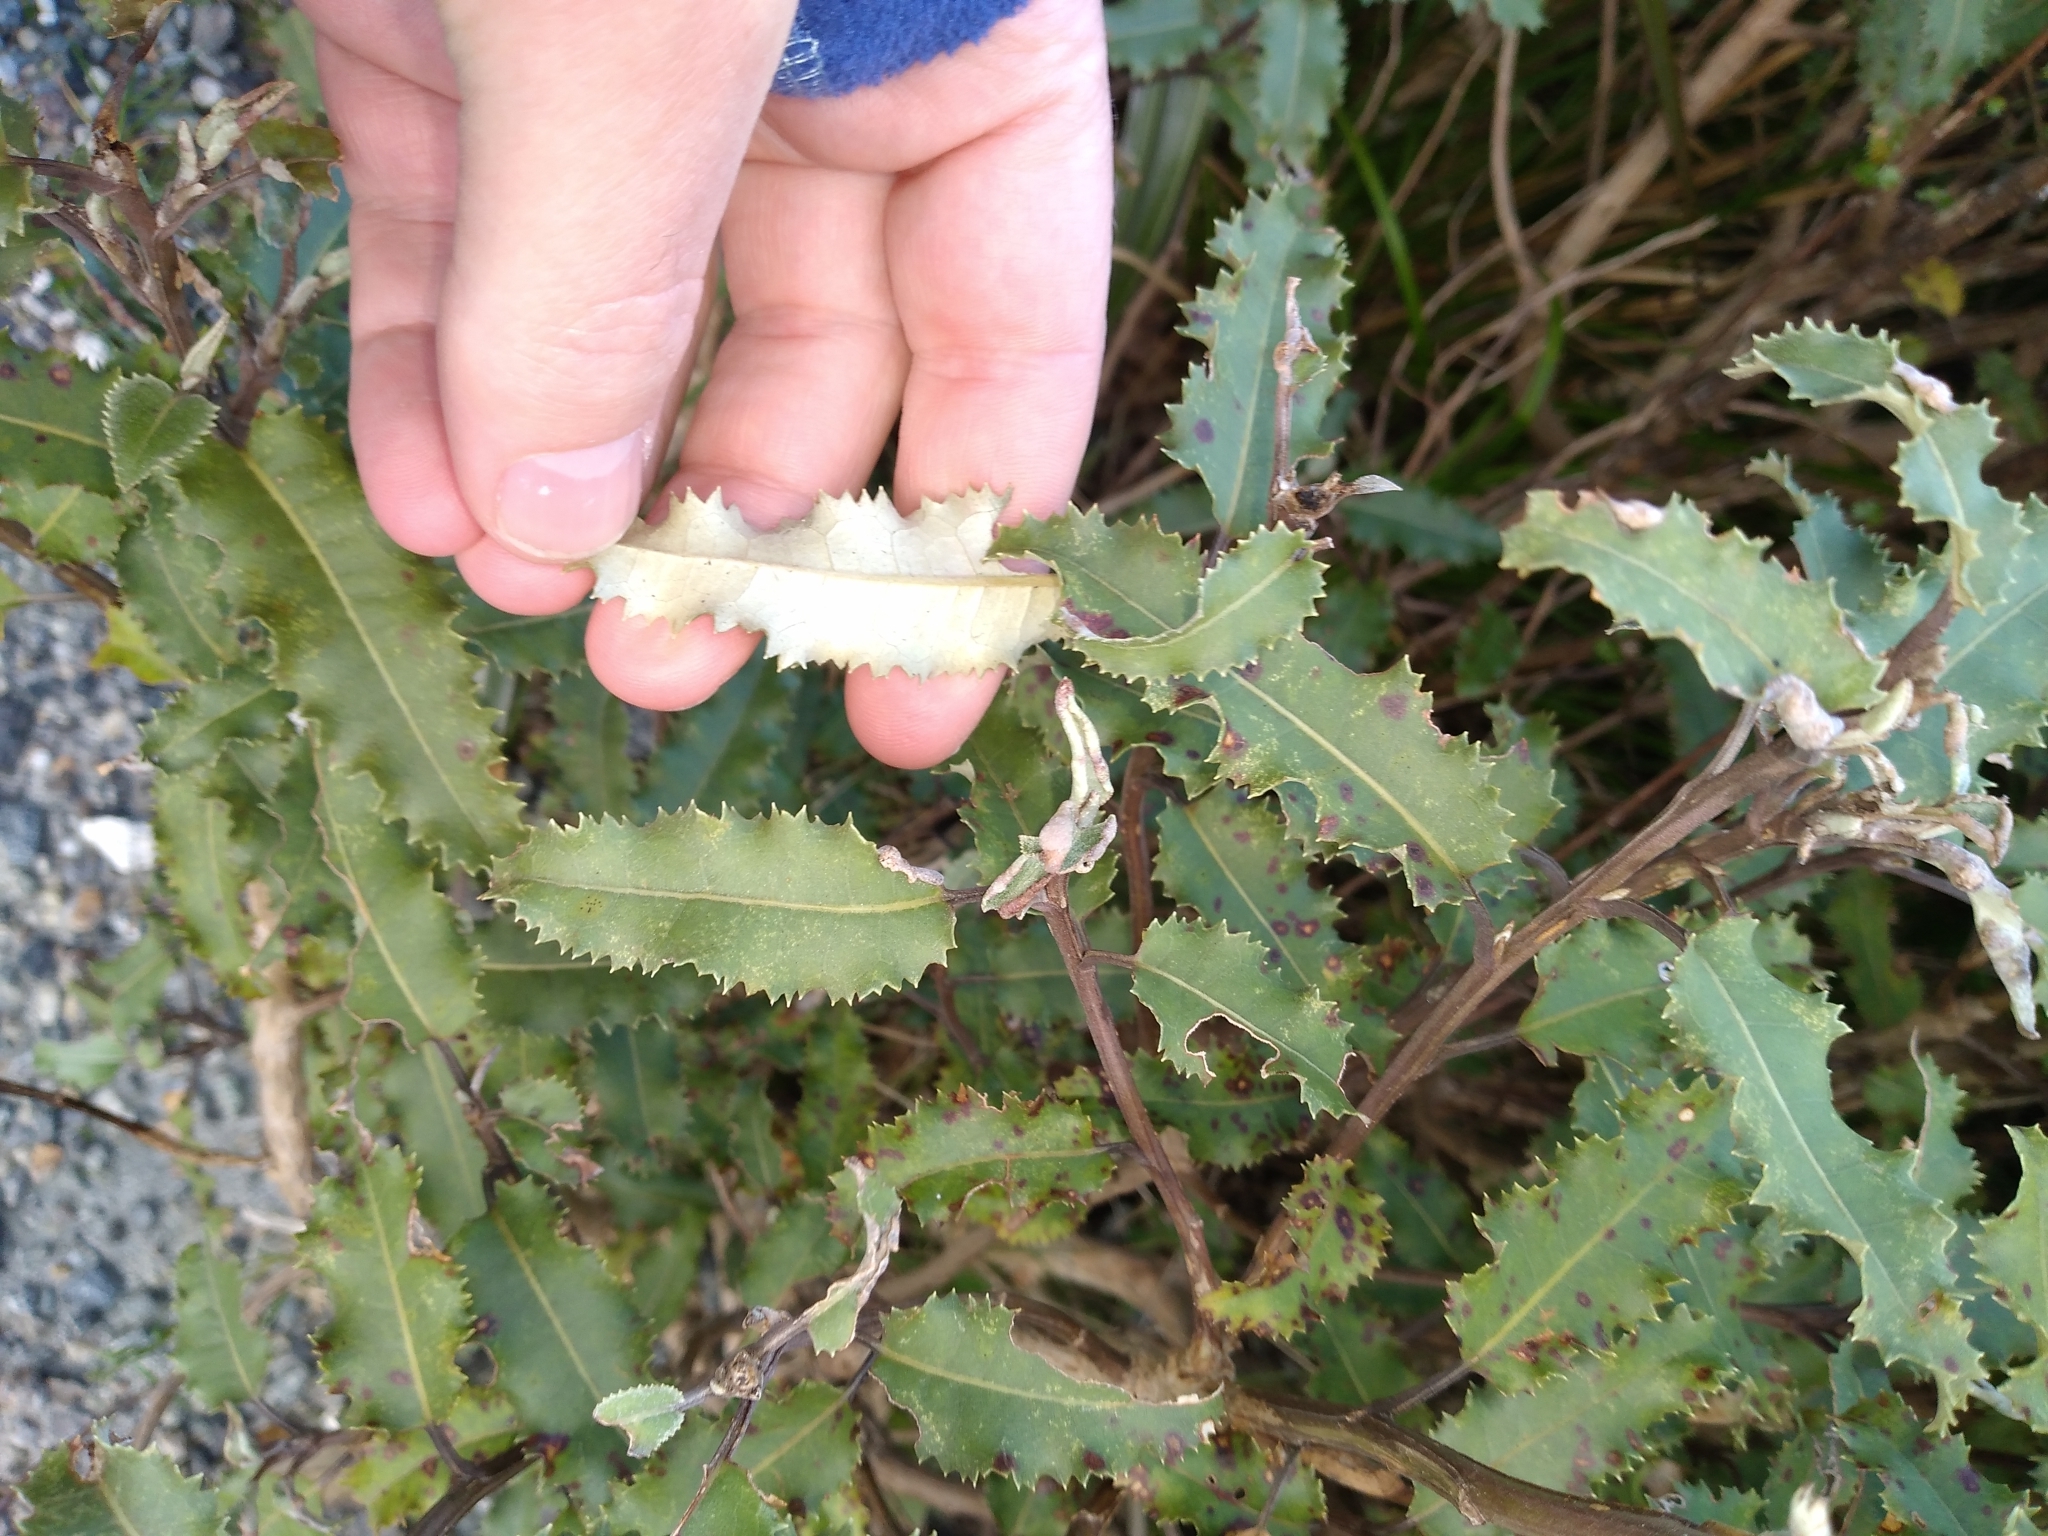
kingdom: Plantae
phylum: Tracheophyta
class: Magnoliopsida
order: Asterales
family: Asteraceae
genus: Olearia
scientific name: Olearia ilicifolia
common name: Maori-holly
